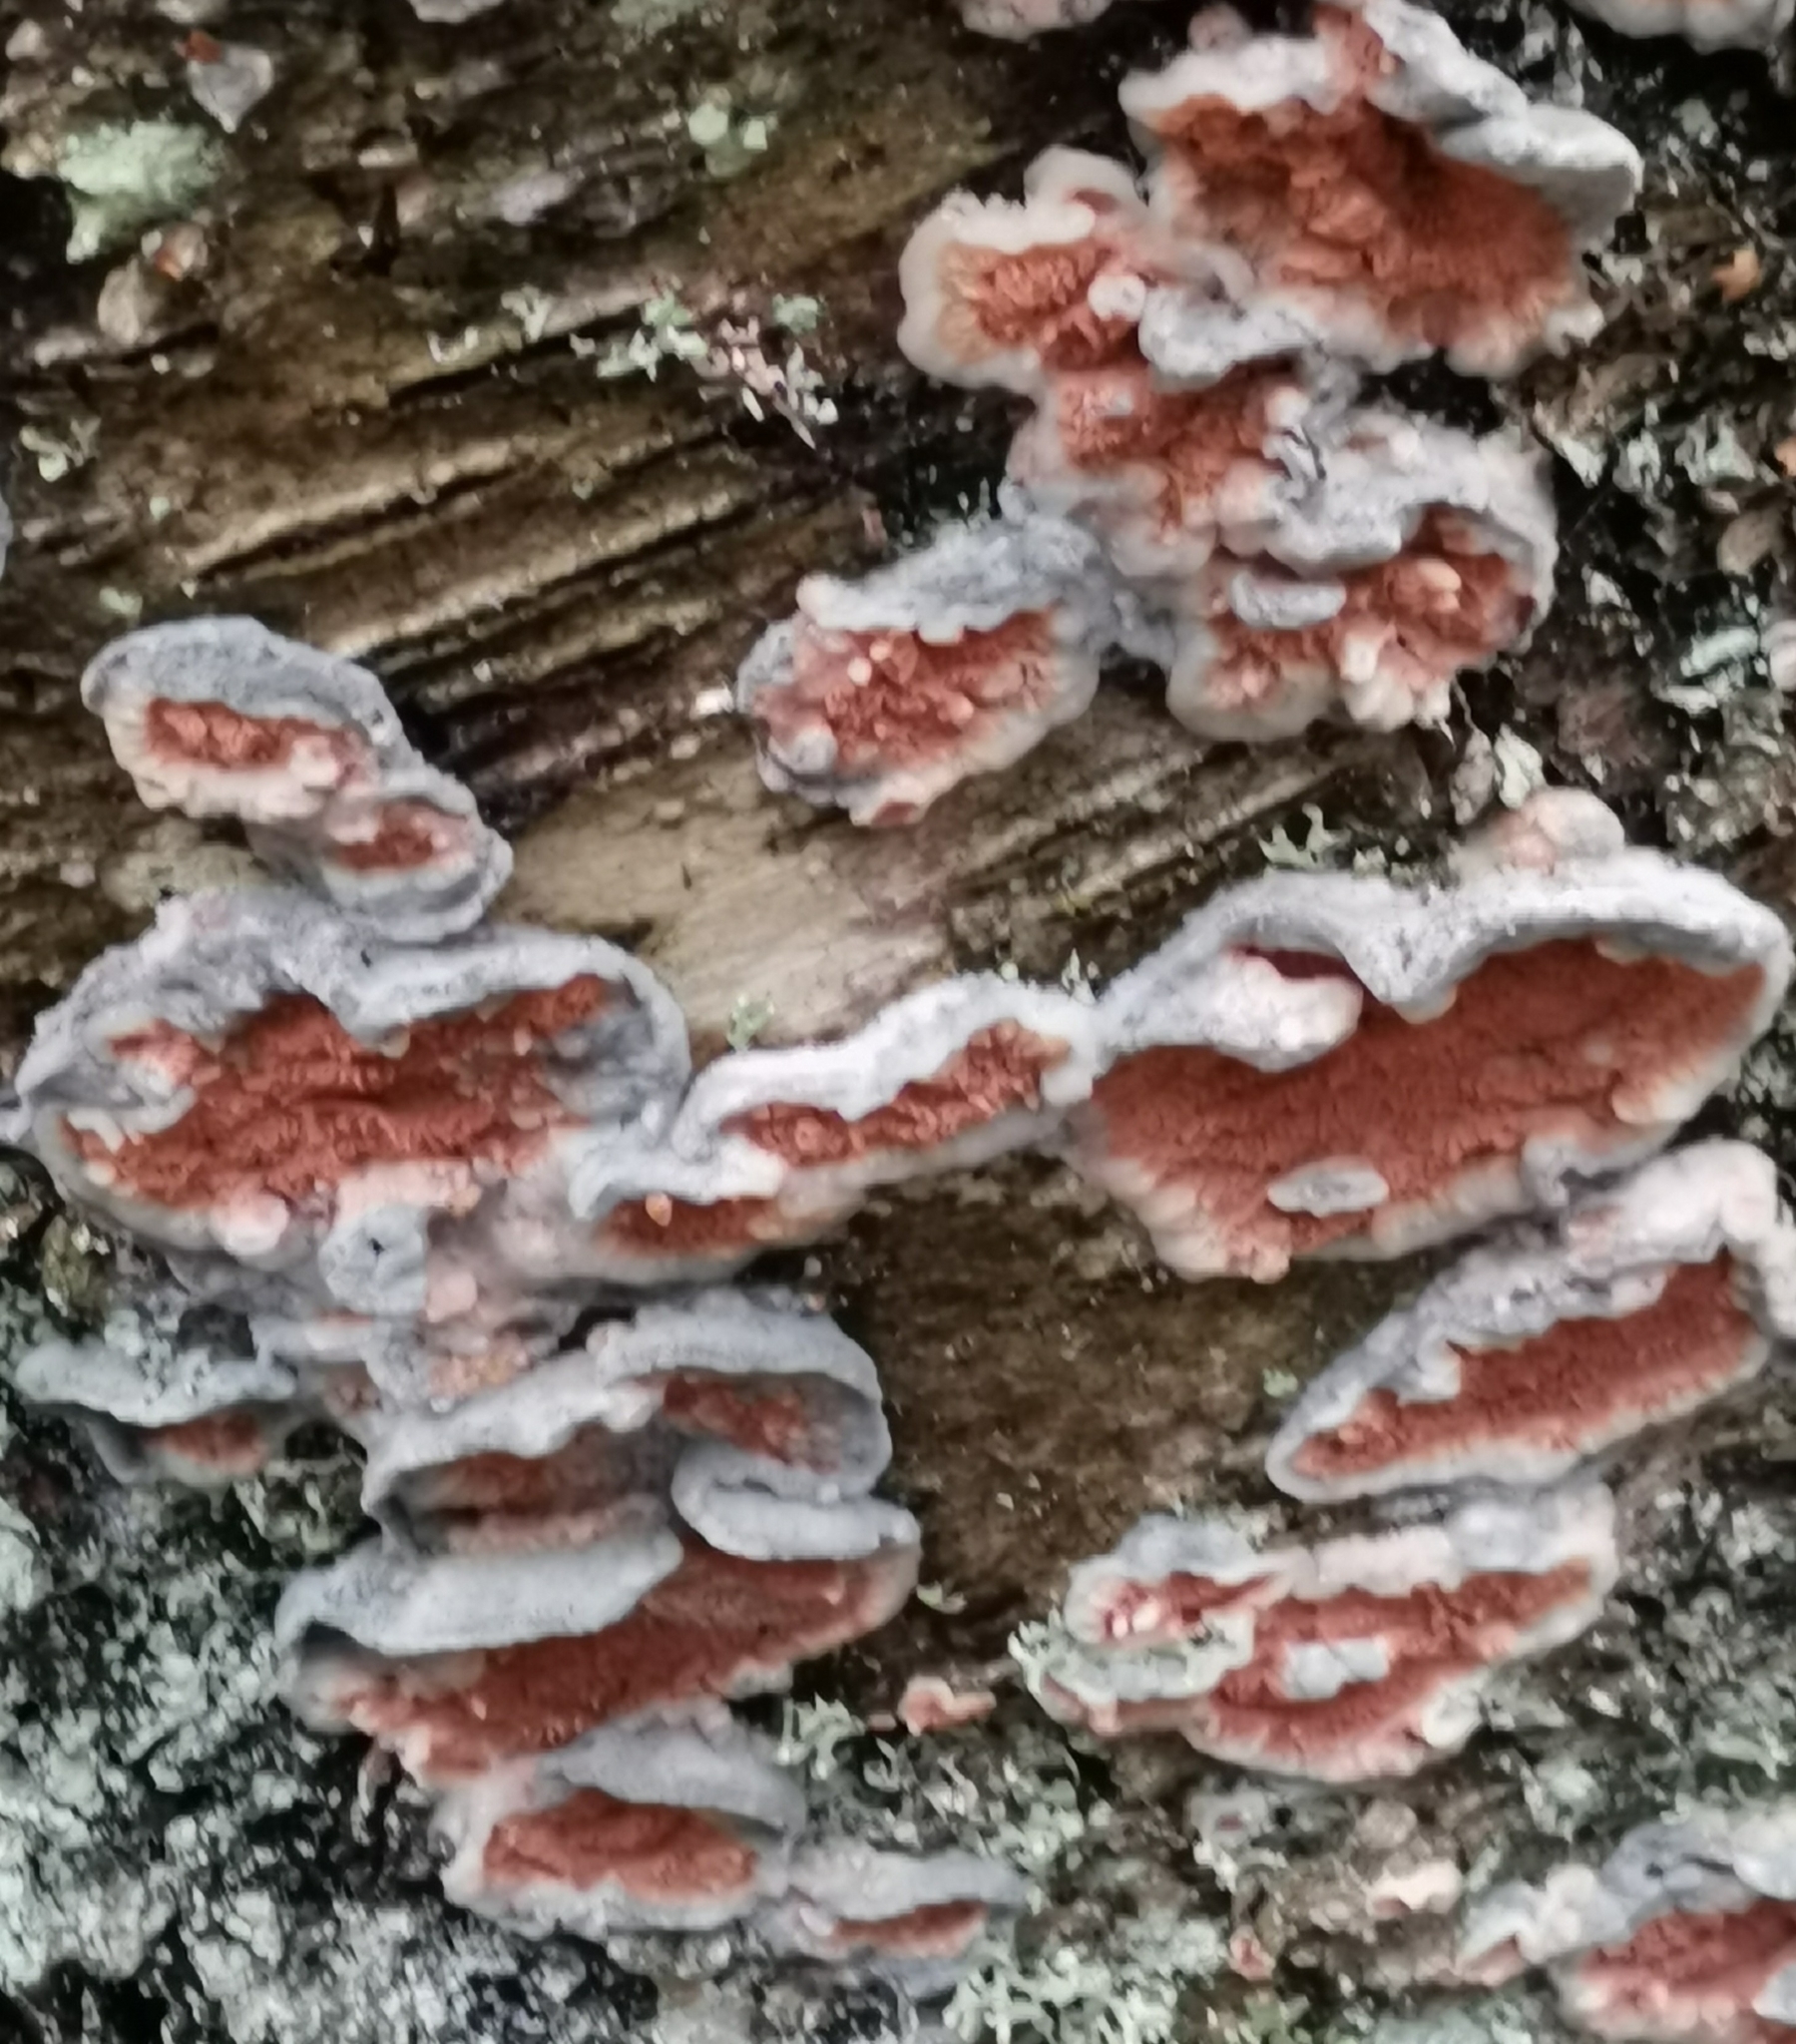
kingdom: Fungi
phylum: Basidiomycota
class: Agaricomycetes
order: Polyporales
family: Meruliaceae
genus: Phlebia
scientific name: Phlebia tremellosa
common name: Jelly rot
